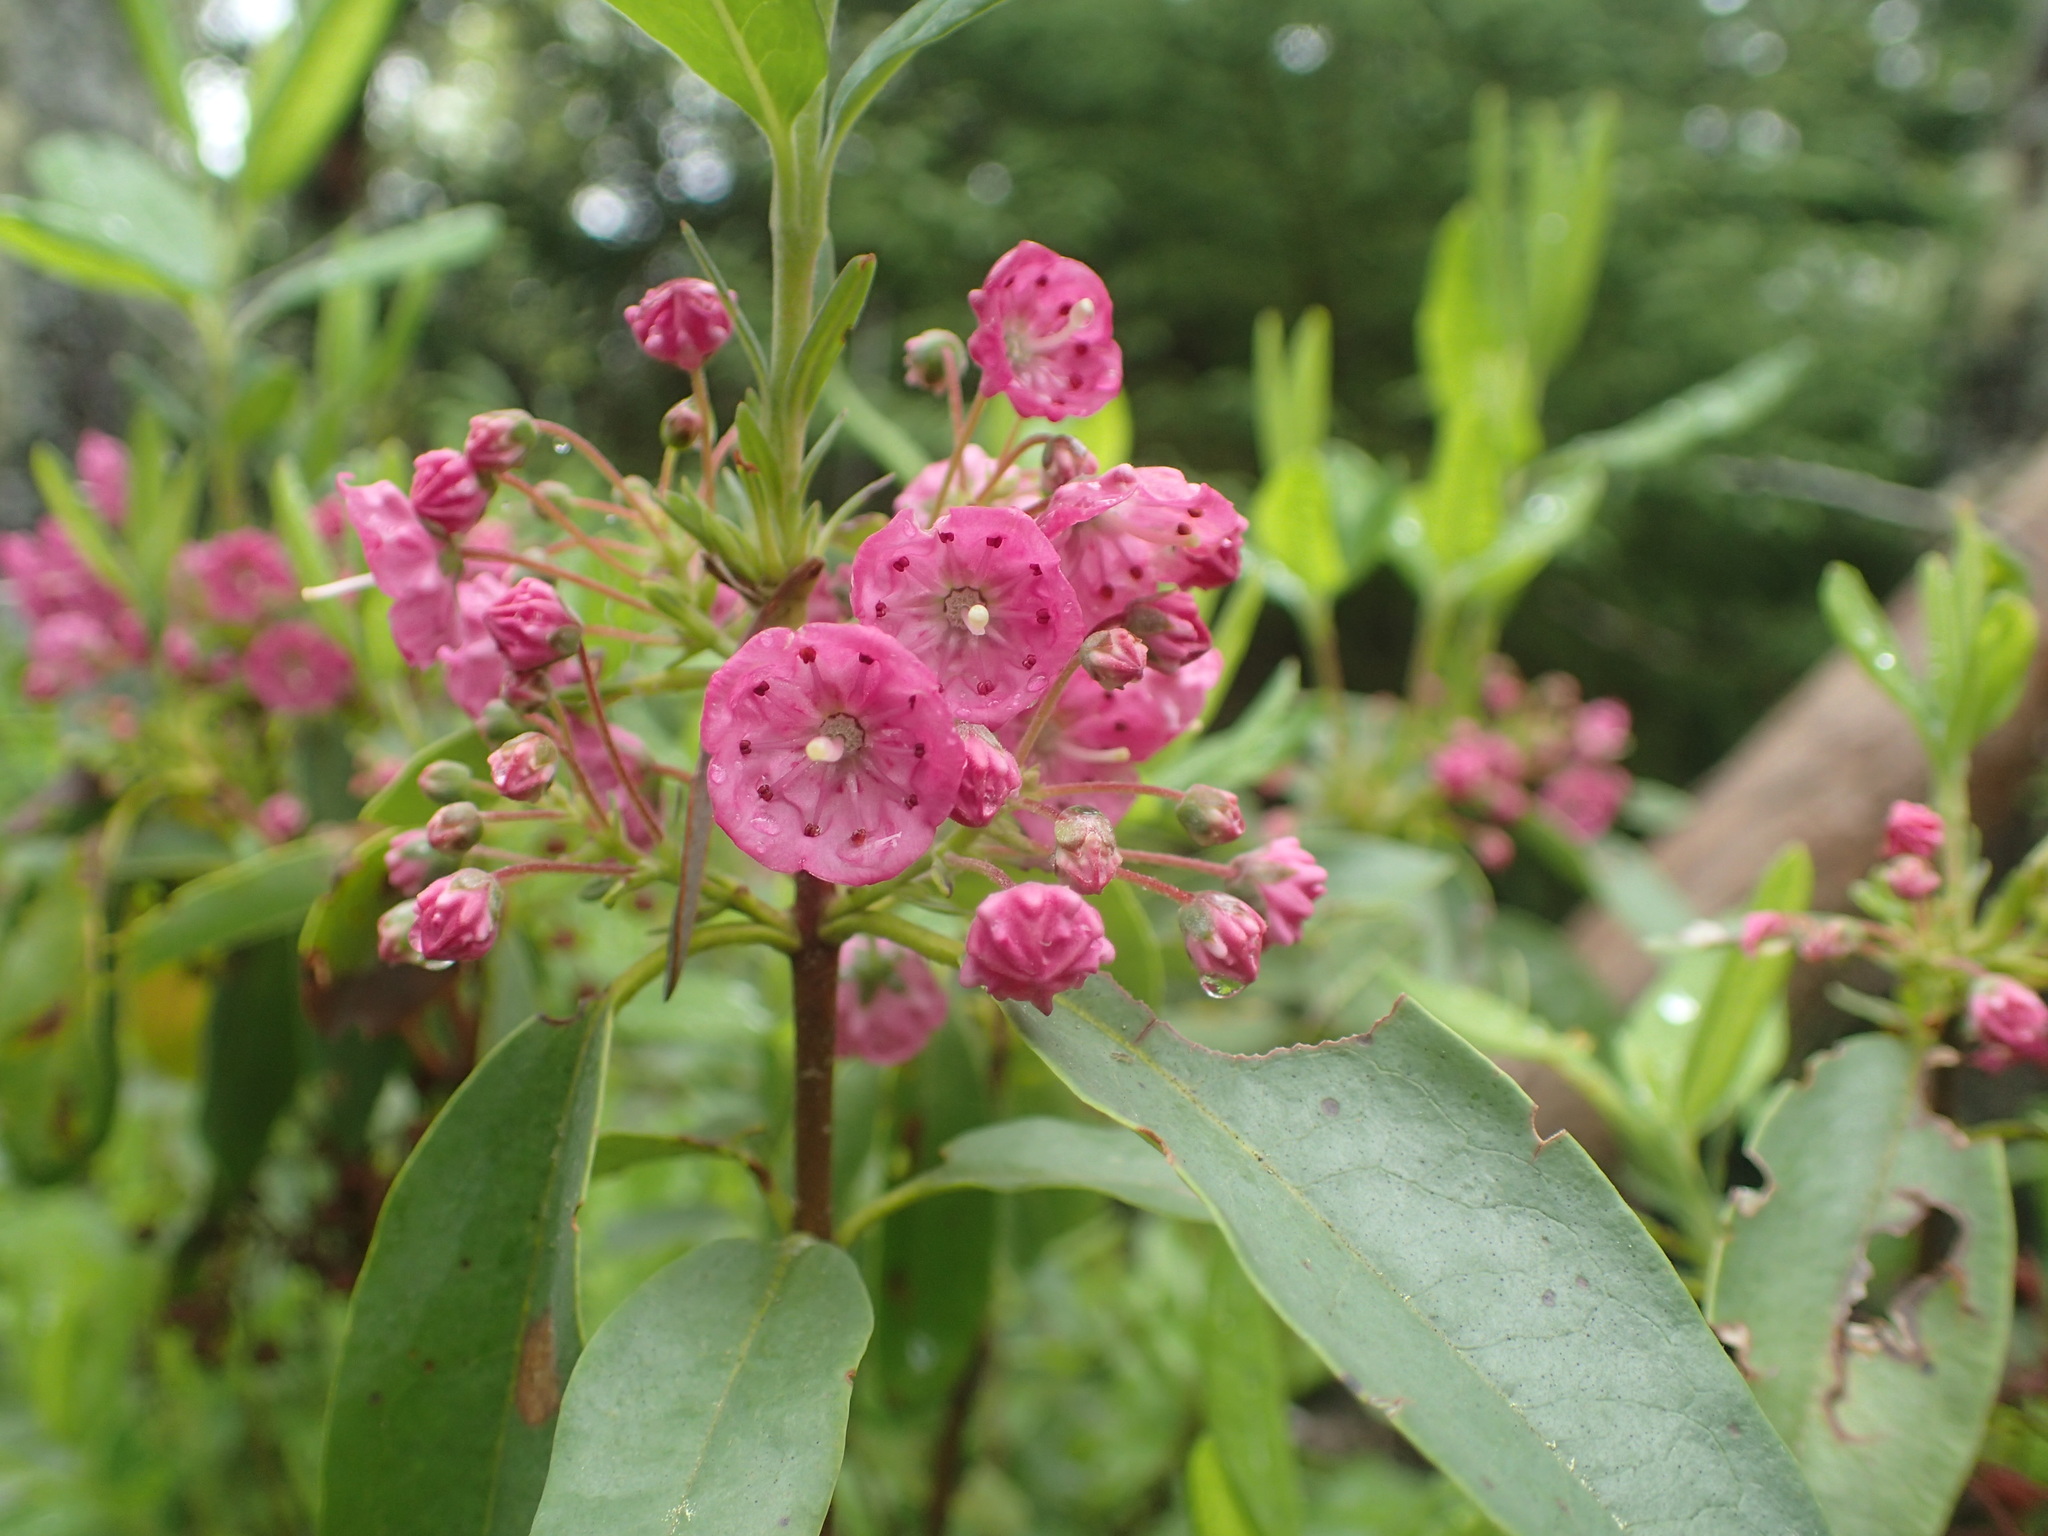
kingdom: Plantae
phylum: Tracheophyta
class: Magnoliopsida
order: Ericales
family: Ericaceae
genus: Kalmia
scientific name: Kalmia angustifolia
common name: Sheep-laurel
